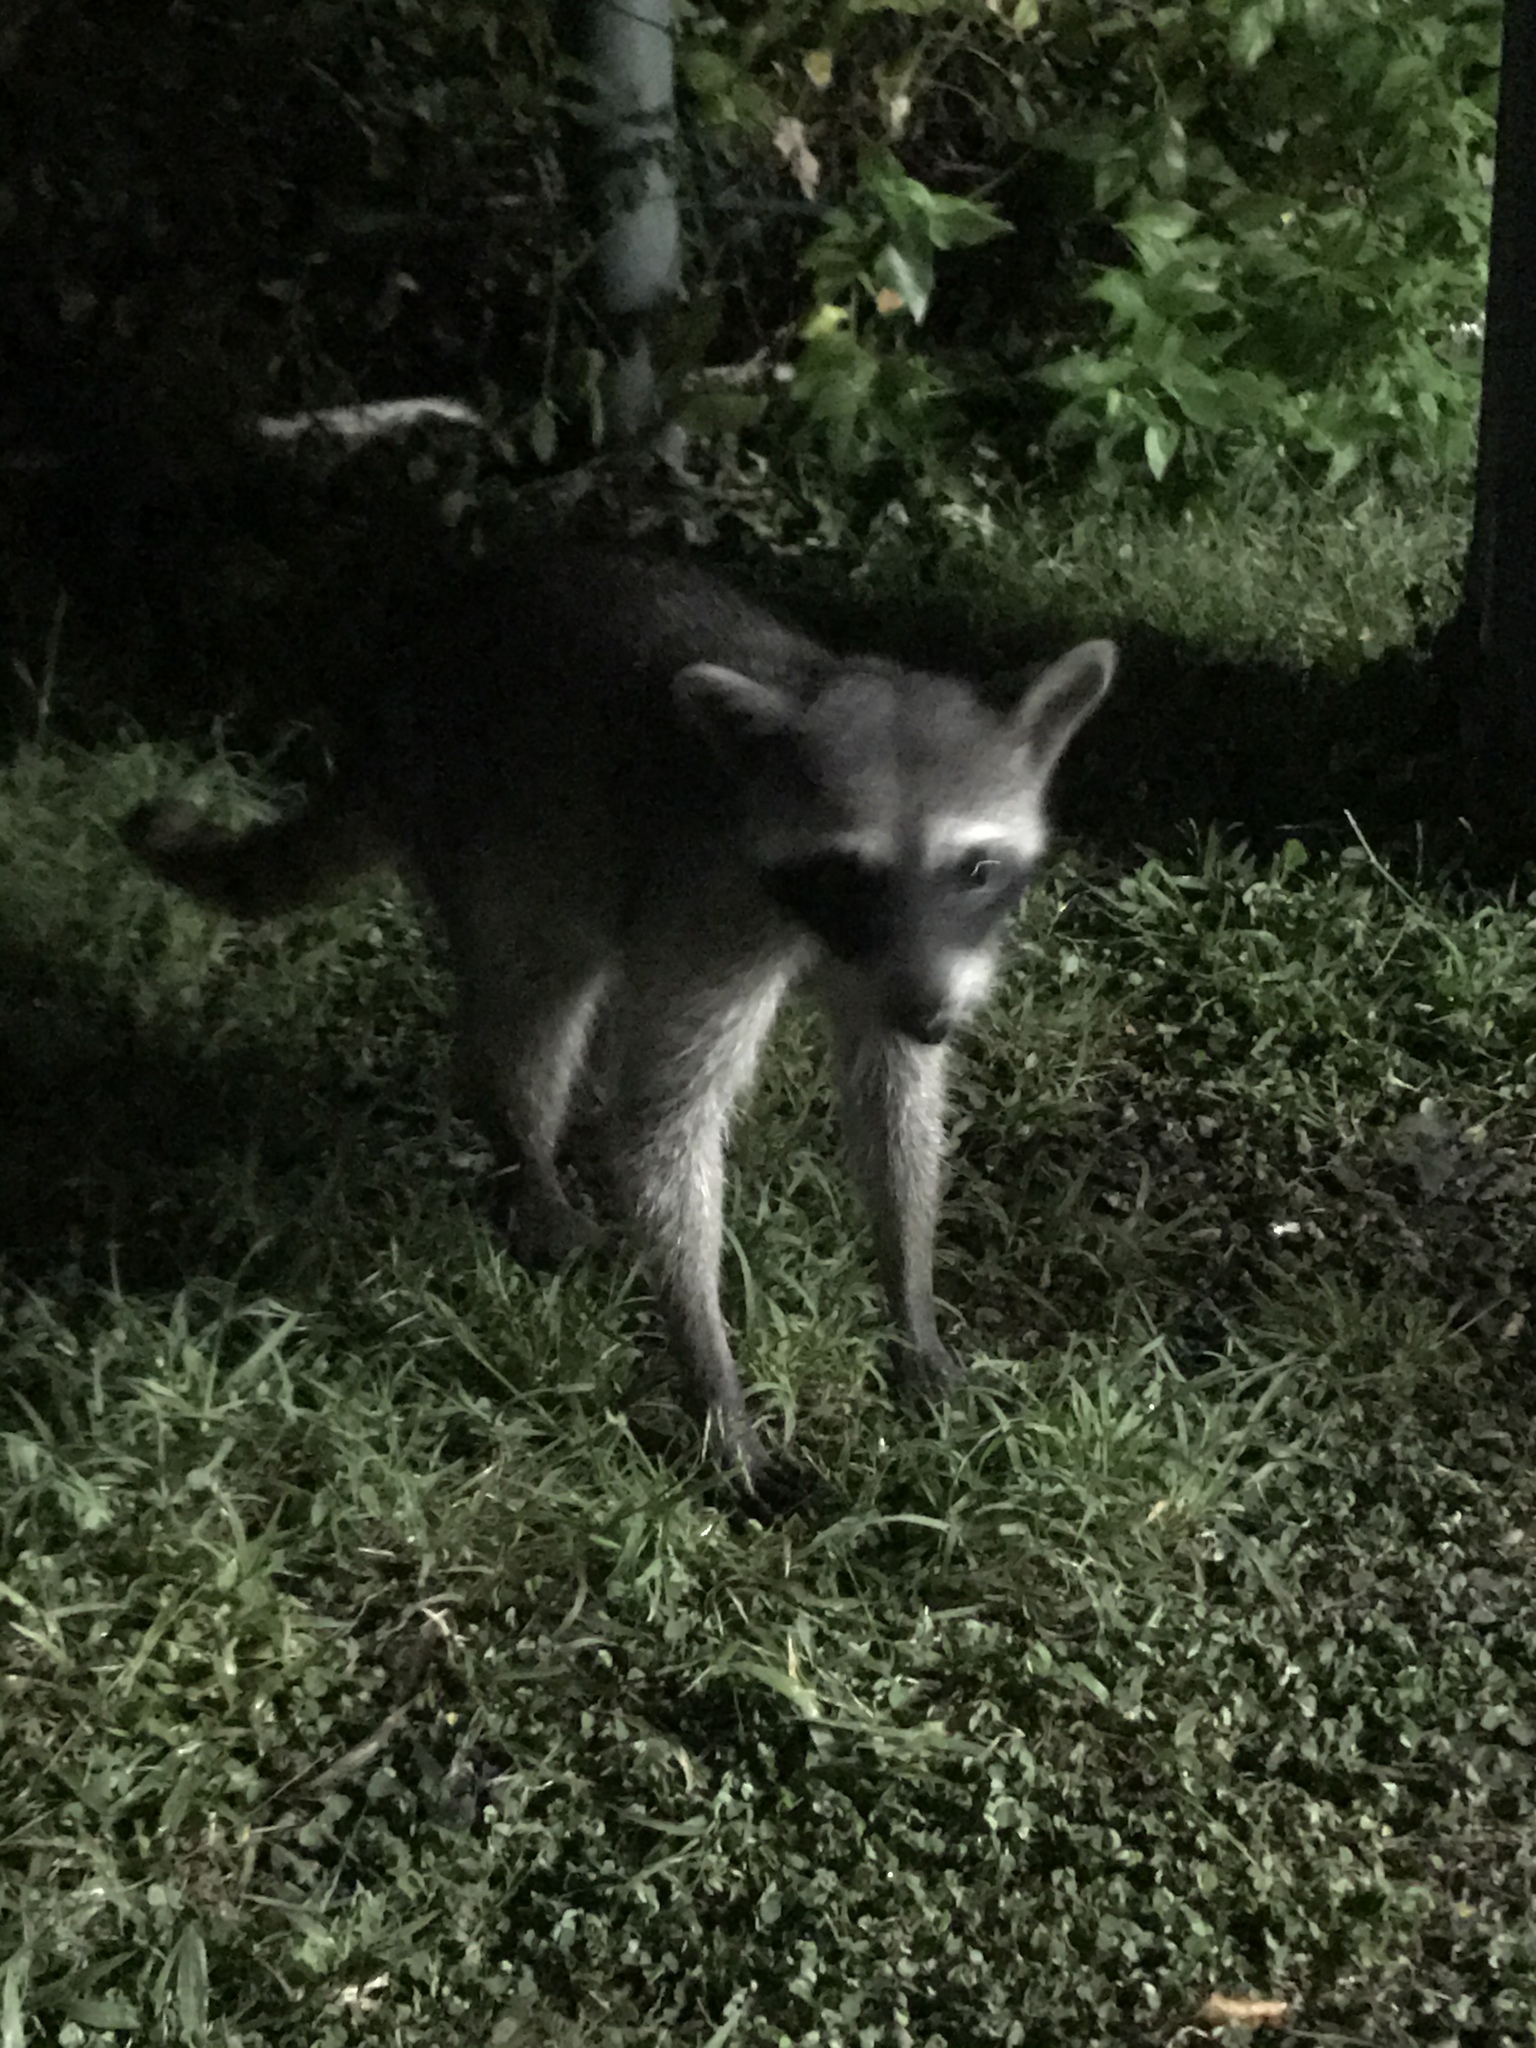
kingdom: Animalia
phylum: Chordata
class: Mammalia
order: Carnivora
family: Procyonidae
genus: Procyon
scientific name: Procyon lotor
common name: Raccoon
